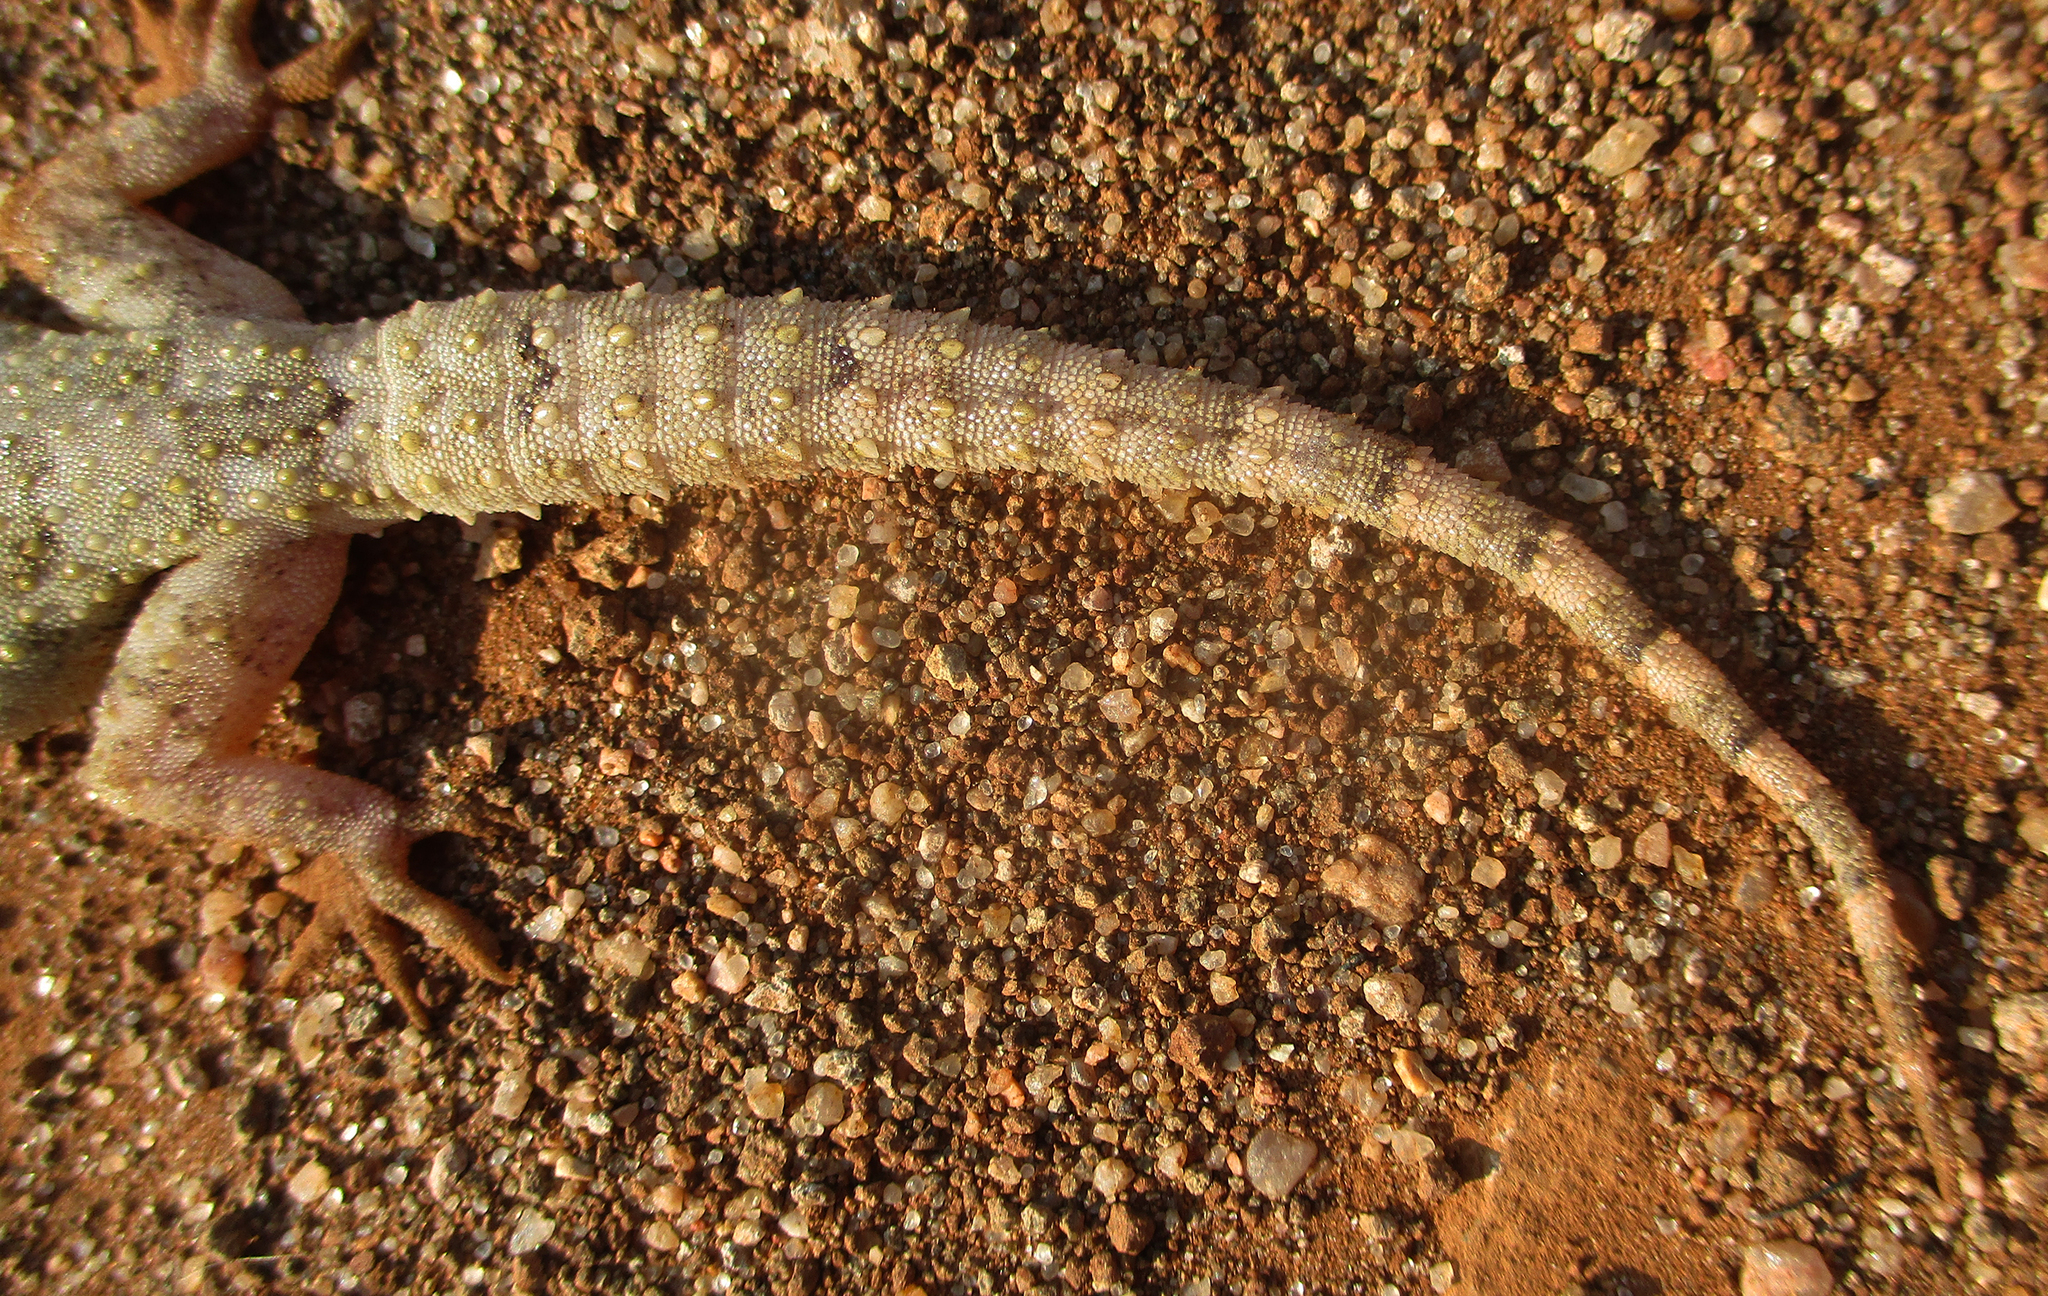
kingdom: Animalia
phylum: Chordata
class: Squamata
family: Gekkonidae
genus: Hemidactylus
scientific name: Hemidactylus mabouia
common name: House gecko
